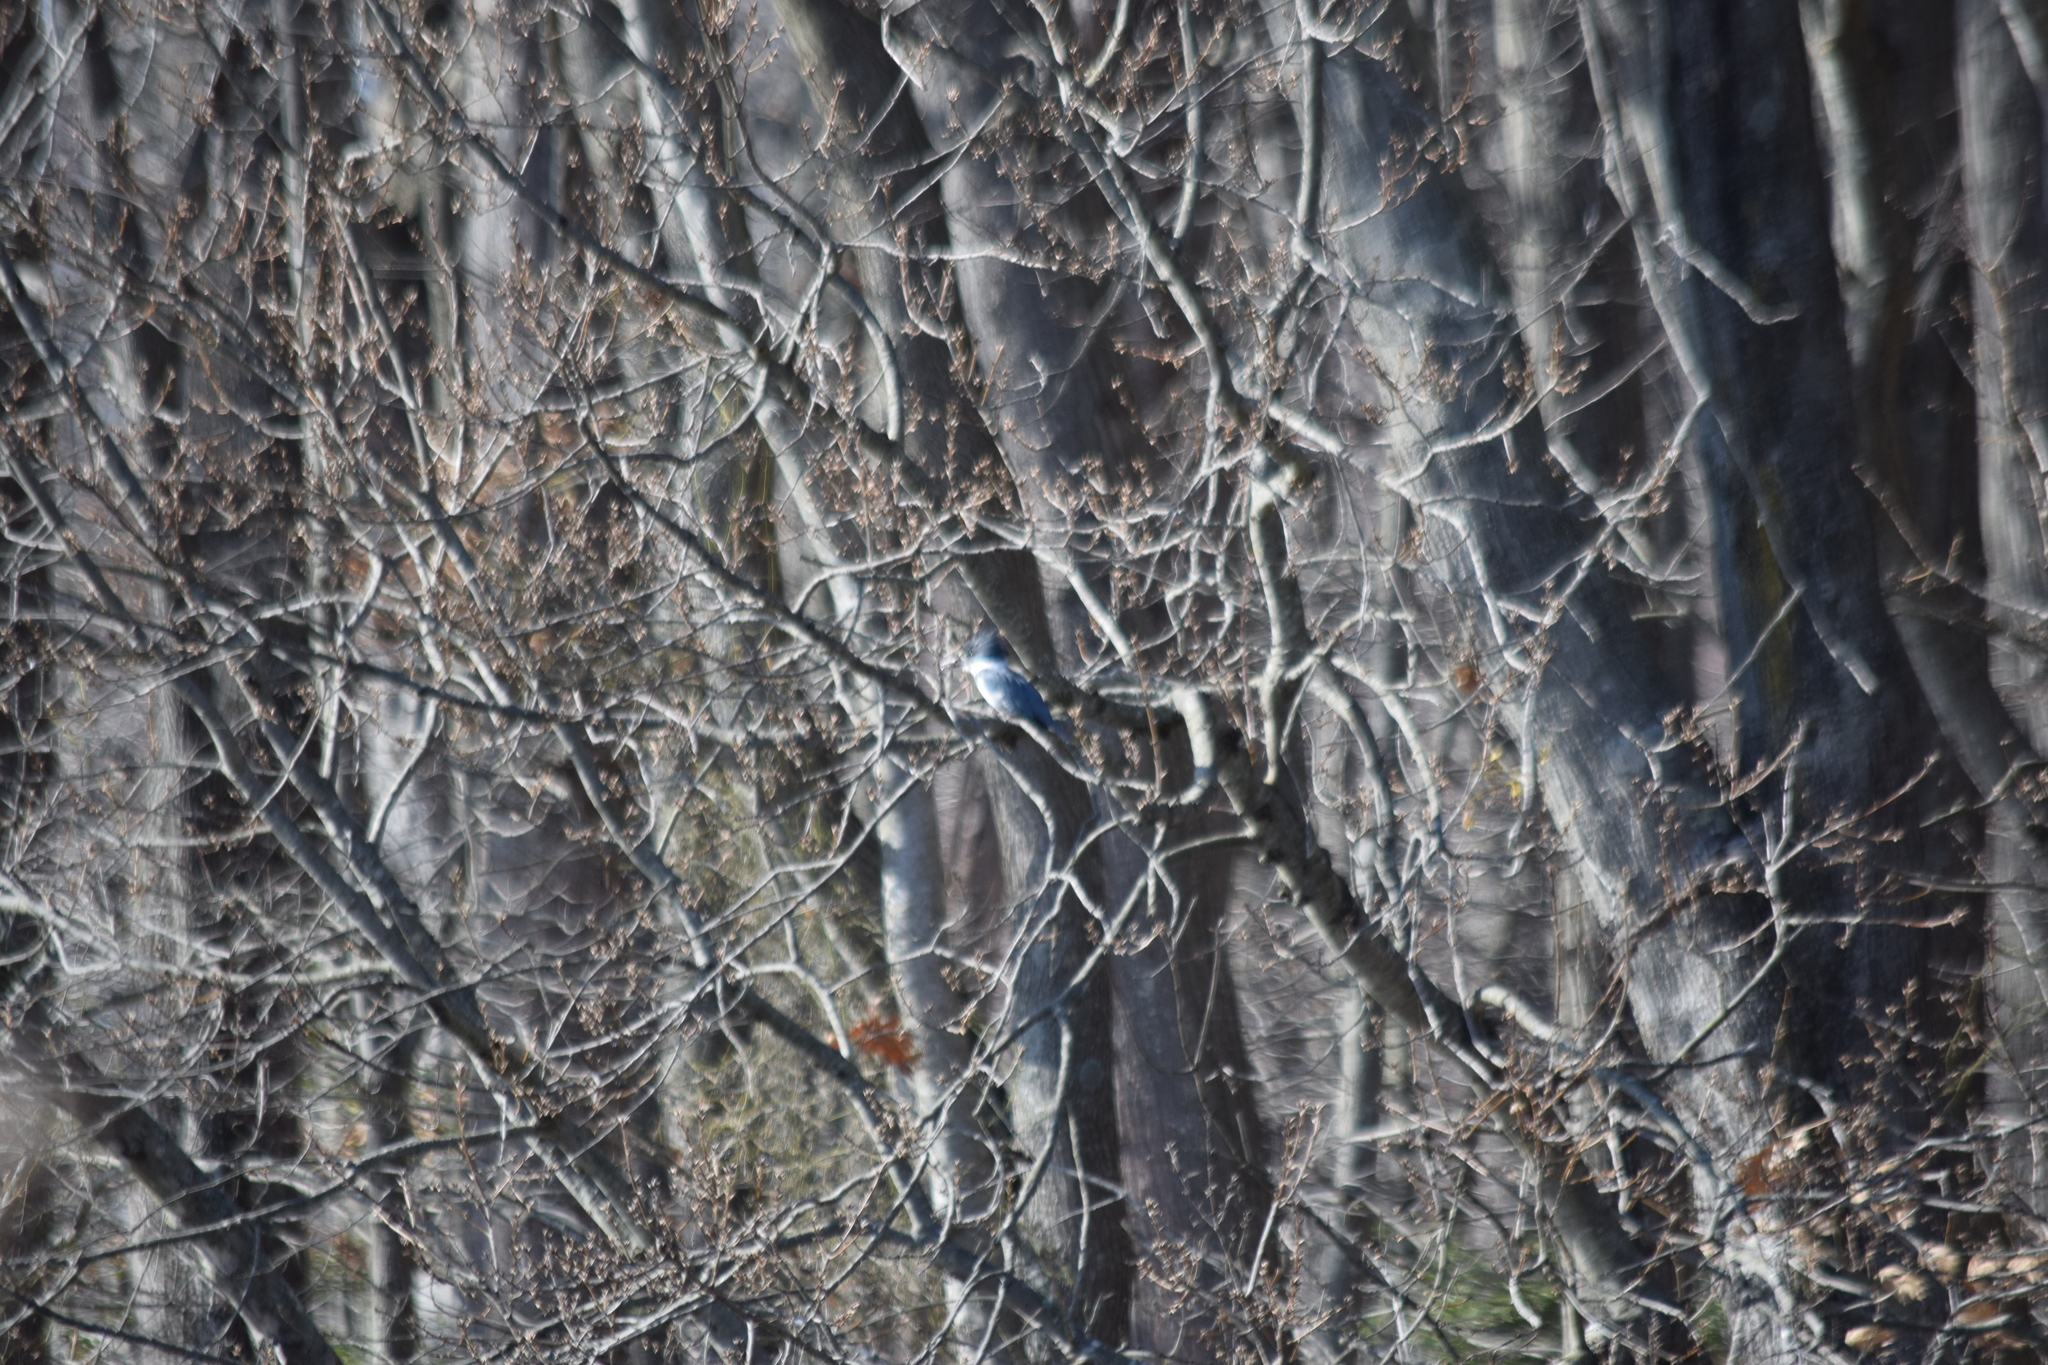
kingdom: Animalia
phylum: Chordata
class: Aves
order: Coraciiformes
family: Alcedinidae
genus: Megaceryle
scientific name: Megaceryle alcyon
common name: Belted kingfisher
